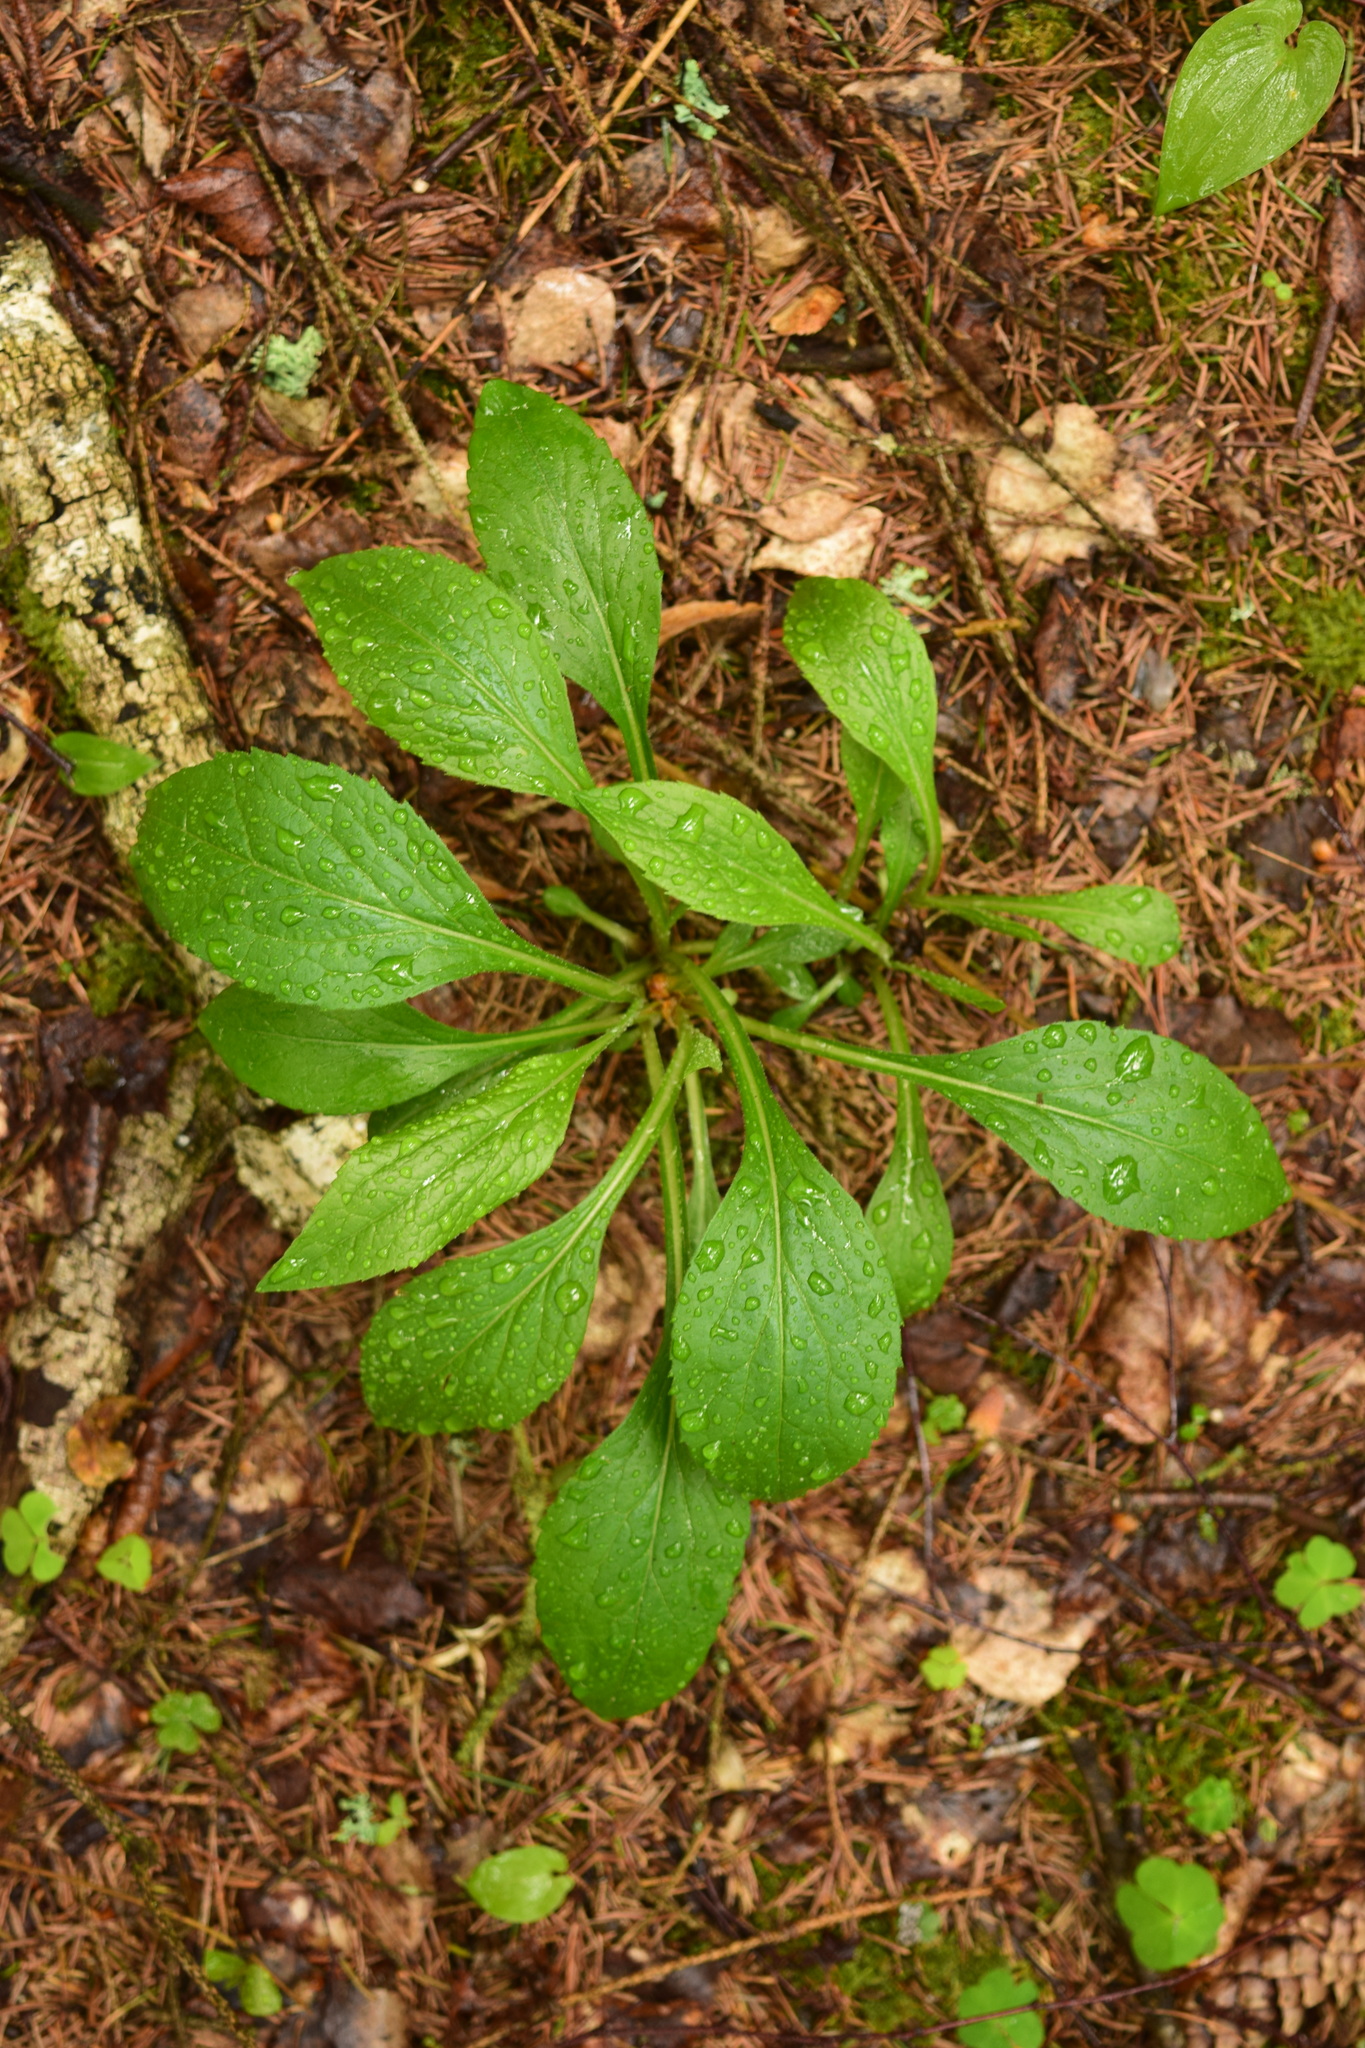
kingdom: Plantae
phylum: Tracheophyta
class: Magnoliopsida
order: Asterales
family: Asteraceae
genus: Solidago
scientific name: Solidago virgaurea
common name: Goldenrod
